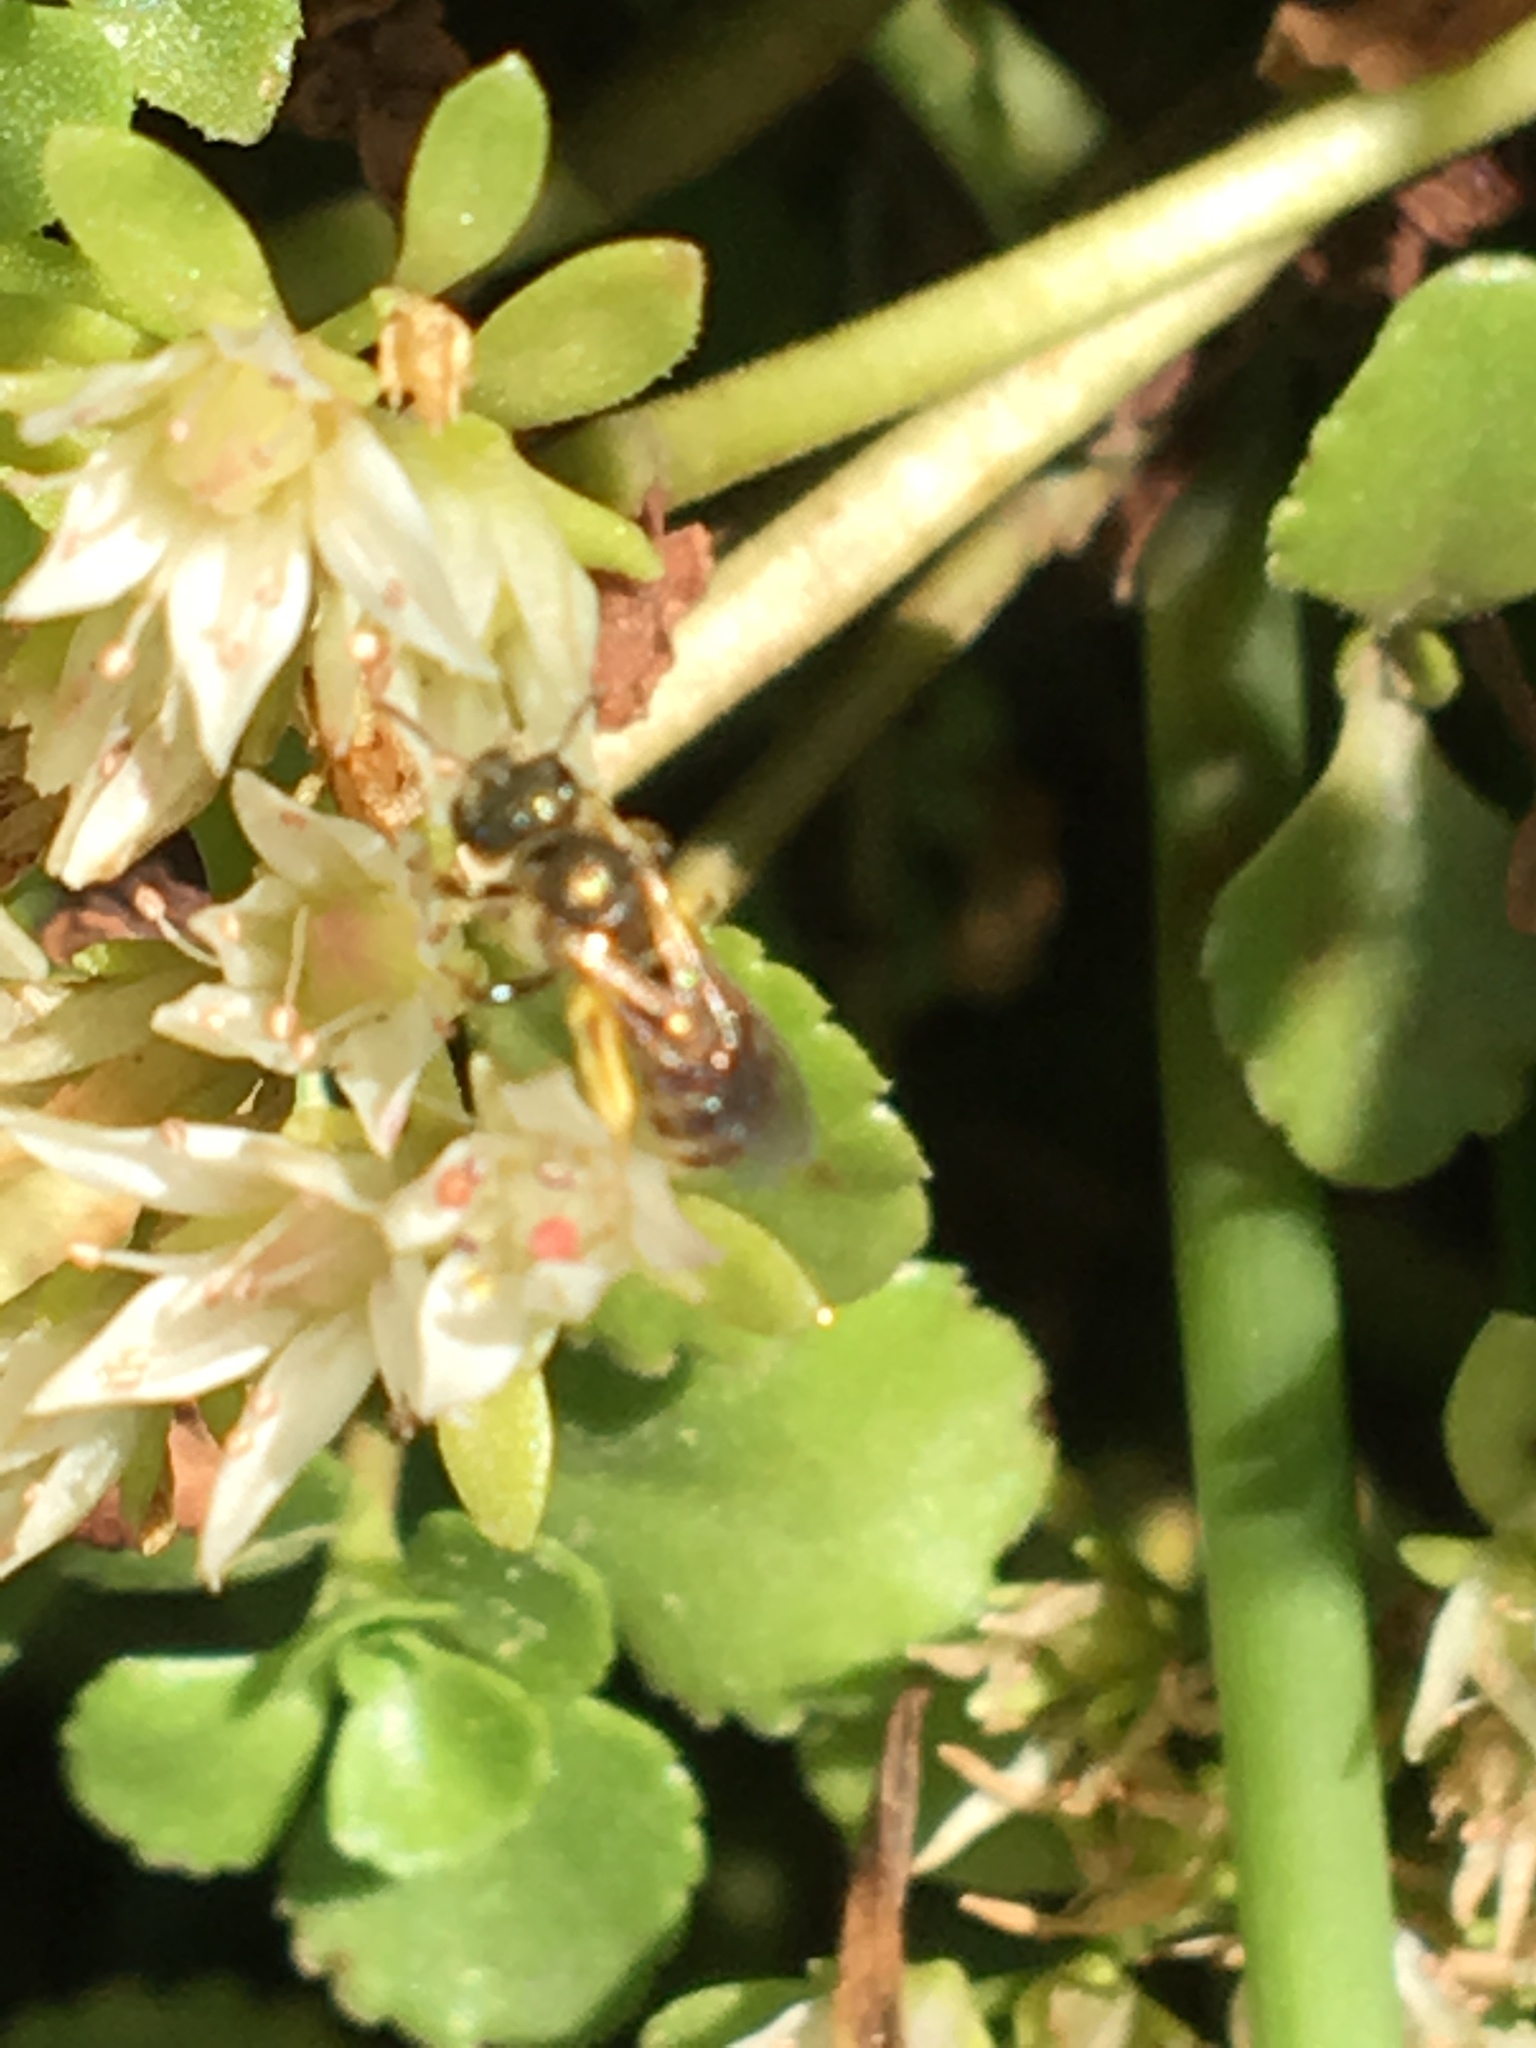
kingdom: Animalia
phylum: Arthropoda
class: Insecta
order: Hymenoptera
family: Halictidae
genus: Halictus
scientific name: Halictus confusus
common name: Southern bronze furrow bee
